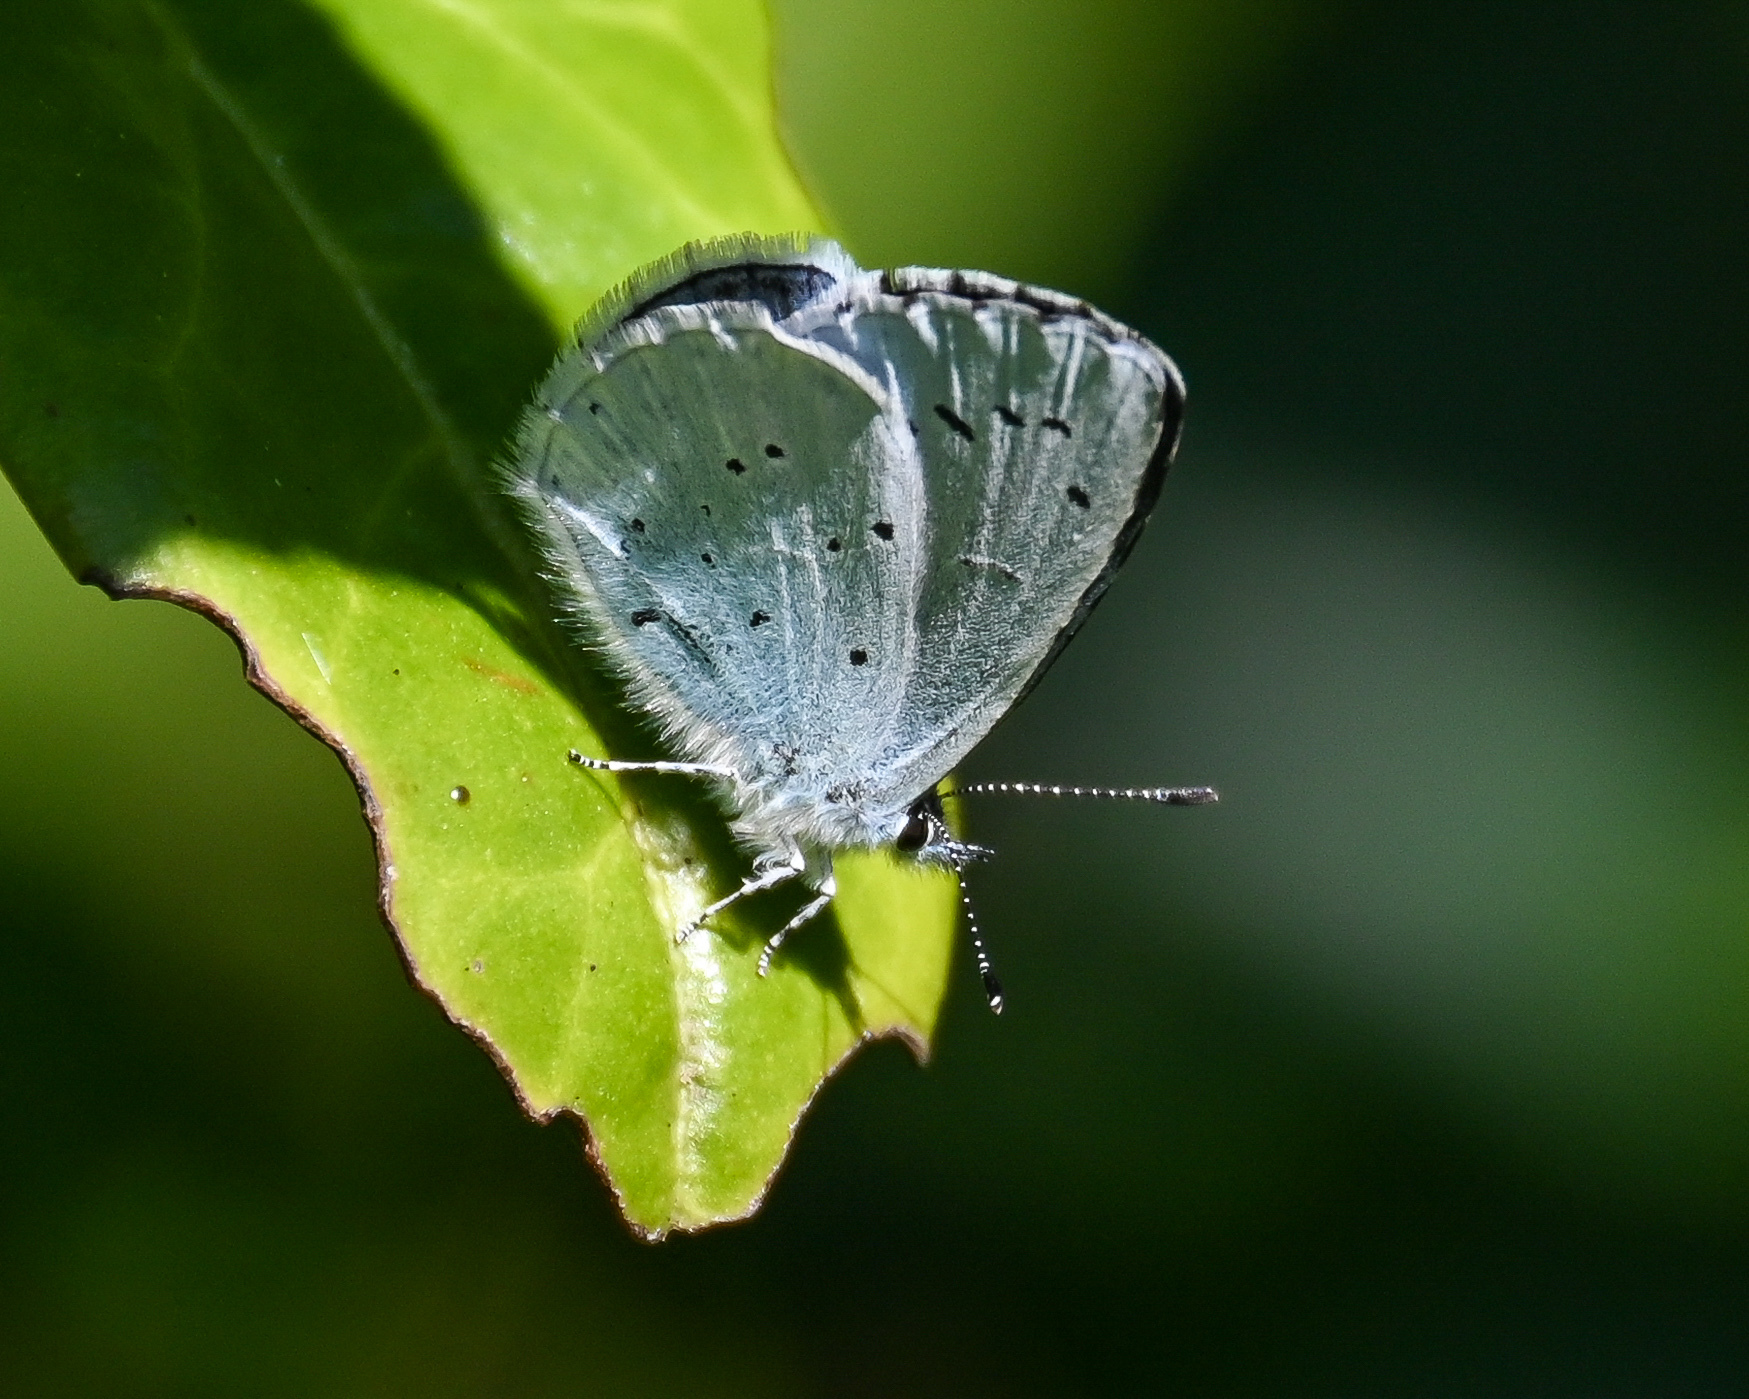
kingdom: Animalia
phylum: Arthropoda
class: Insecta
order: Lepidoptera
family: Lycaenidae
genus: Celastrina
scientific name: Celastrina argiolus
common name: Holly blue
